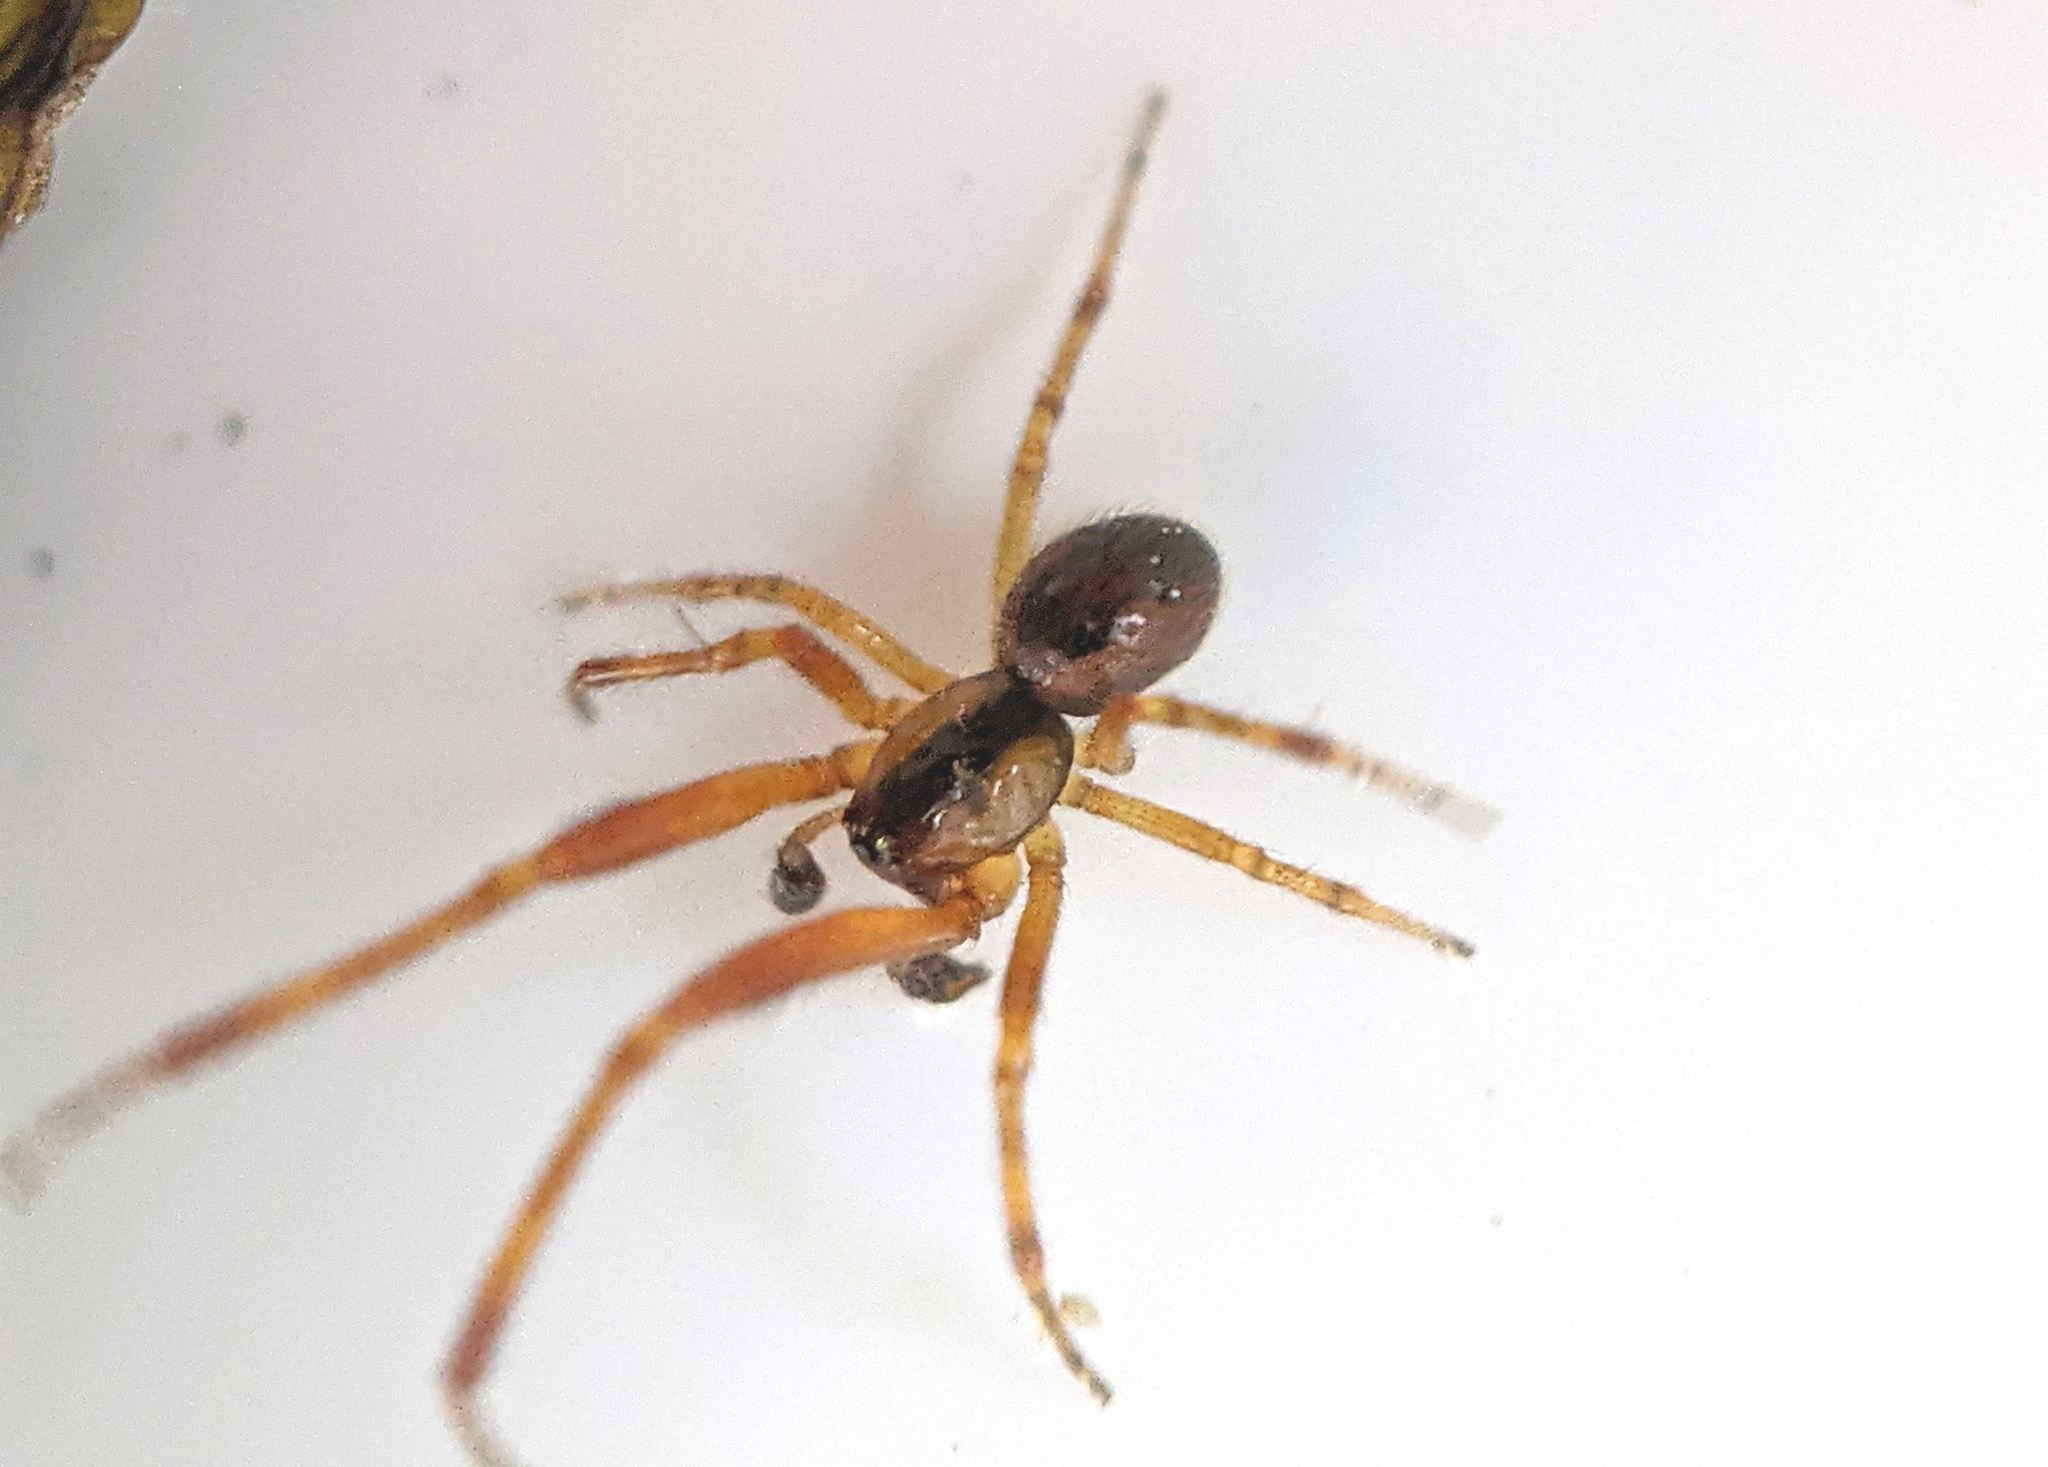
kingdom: Animalia
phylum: Arthropoda
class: Arachnida
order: Araneae
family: Theridiidae
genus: Anelosimus
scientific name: Anelosimus vittatus
